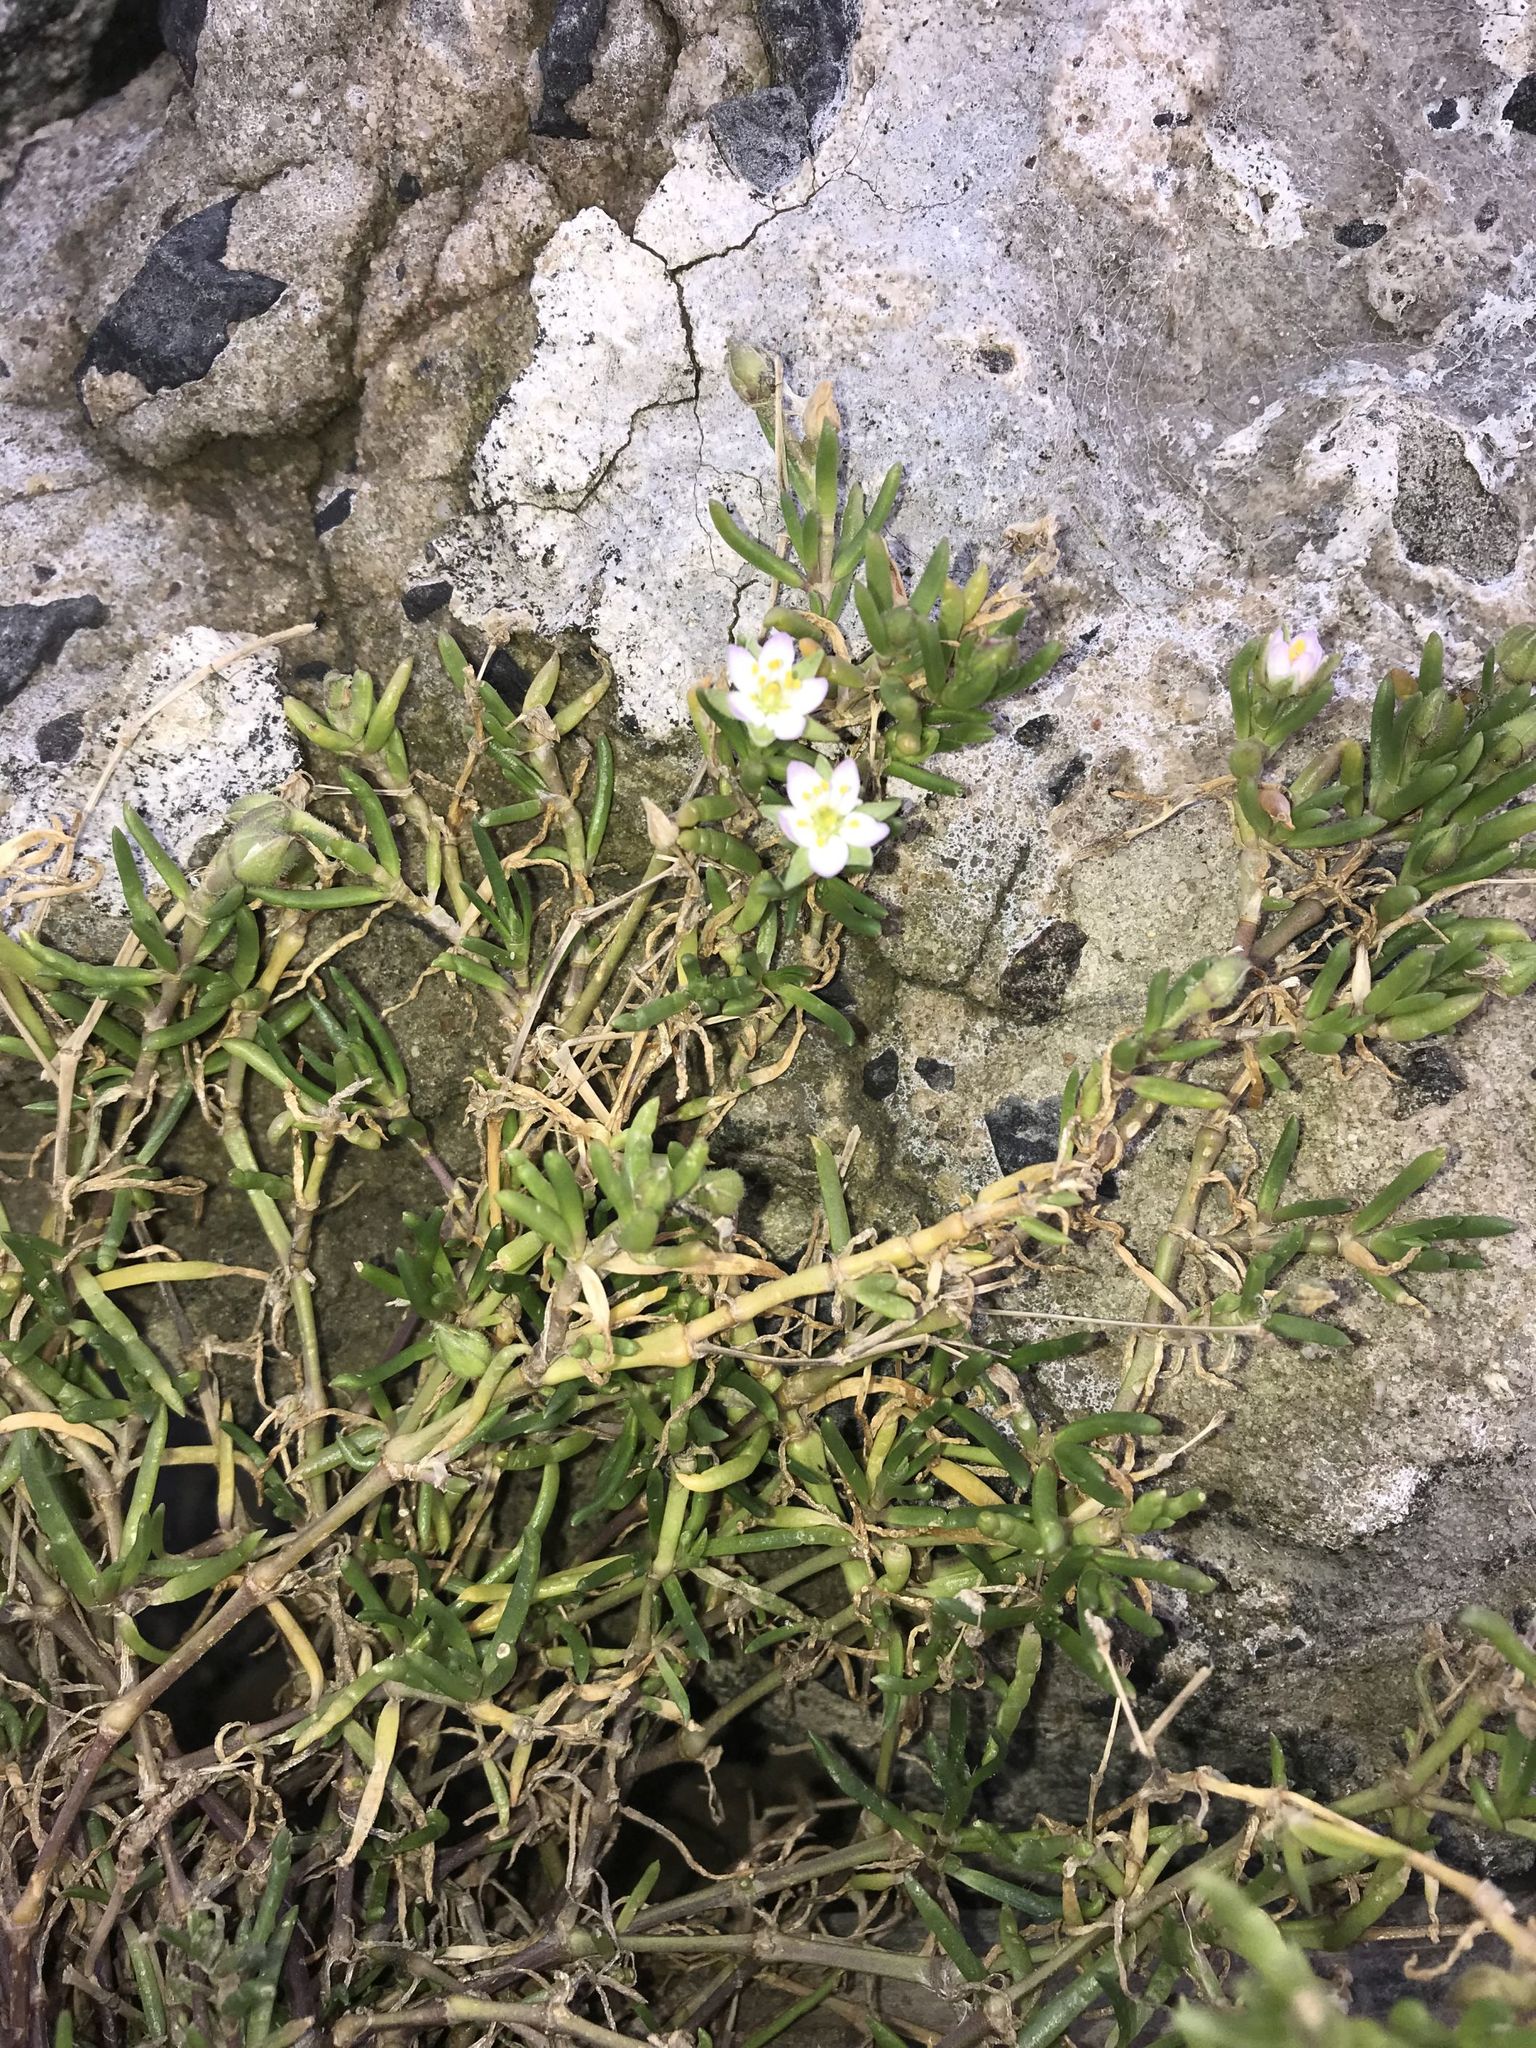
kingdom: Plantae
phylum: Tracheophyta
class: Magnoliopsida
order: Caryophyllales
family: Caryophyllaceae
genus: Spergularia
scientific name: Spergularia media
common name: Greater sea-spurrey
